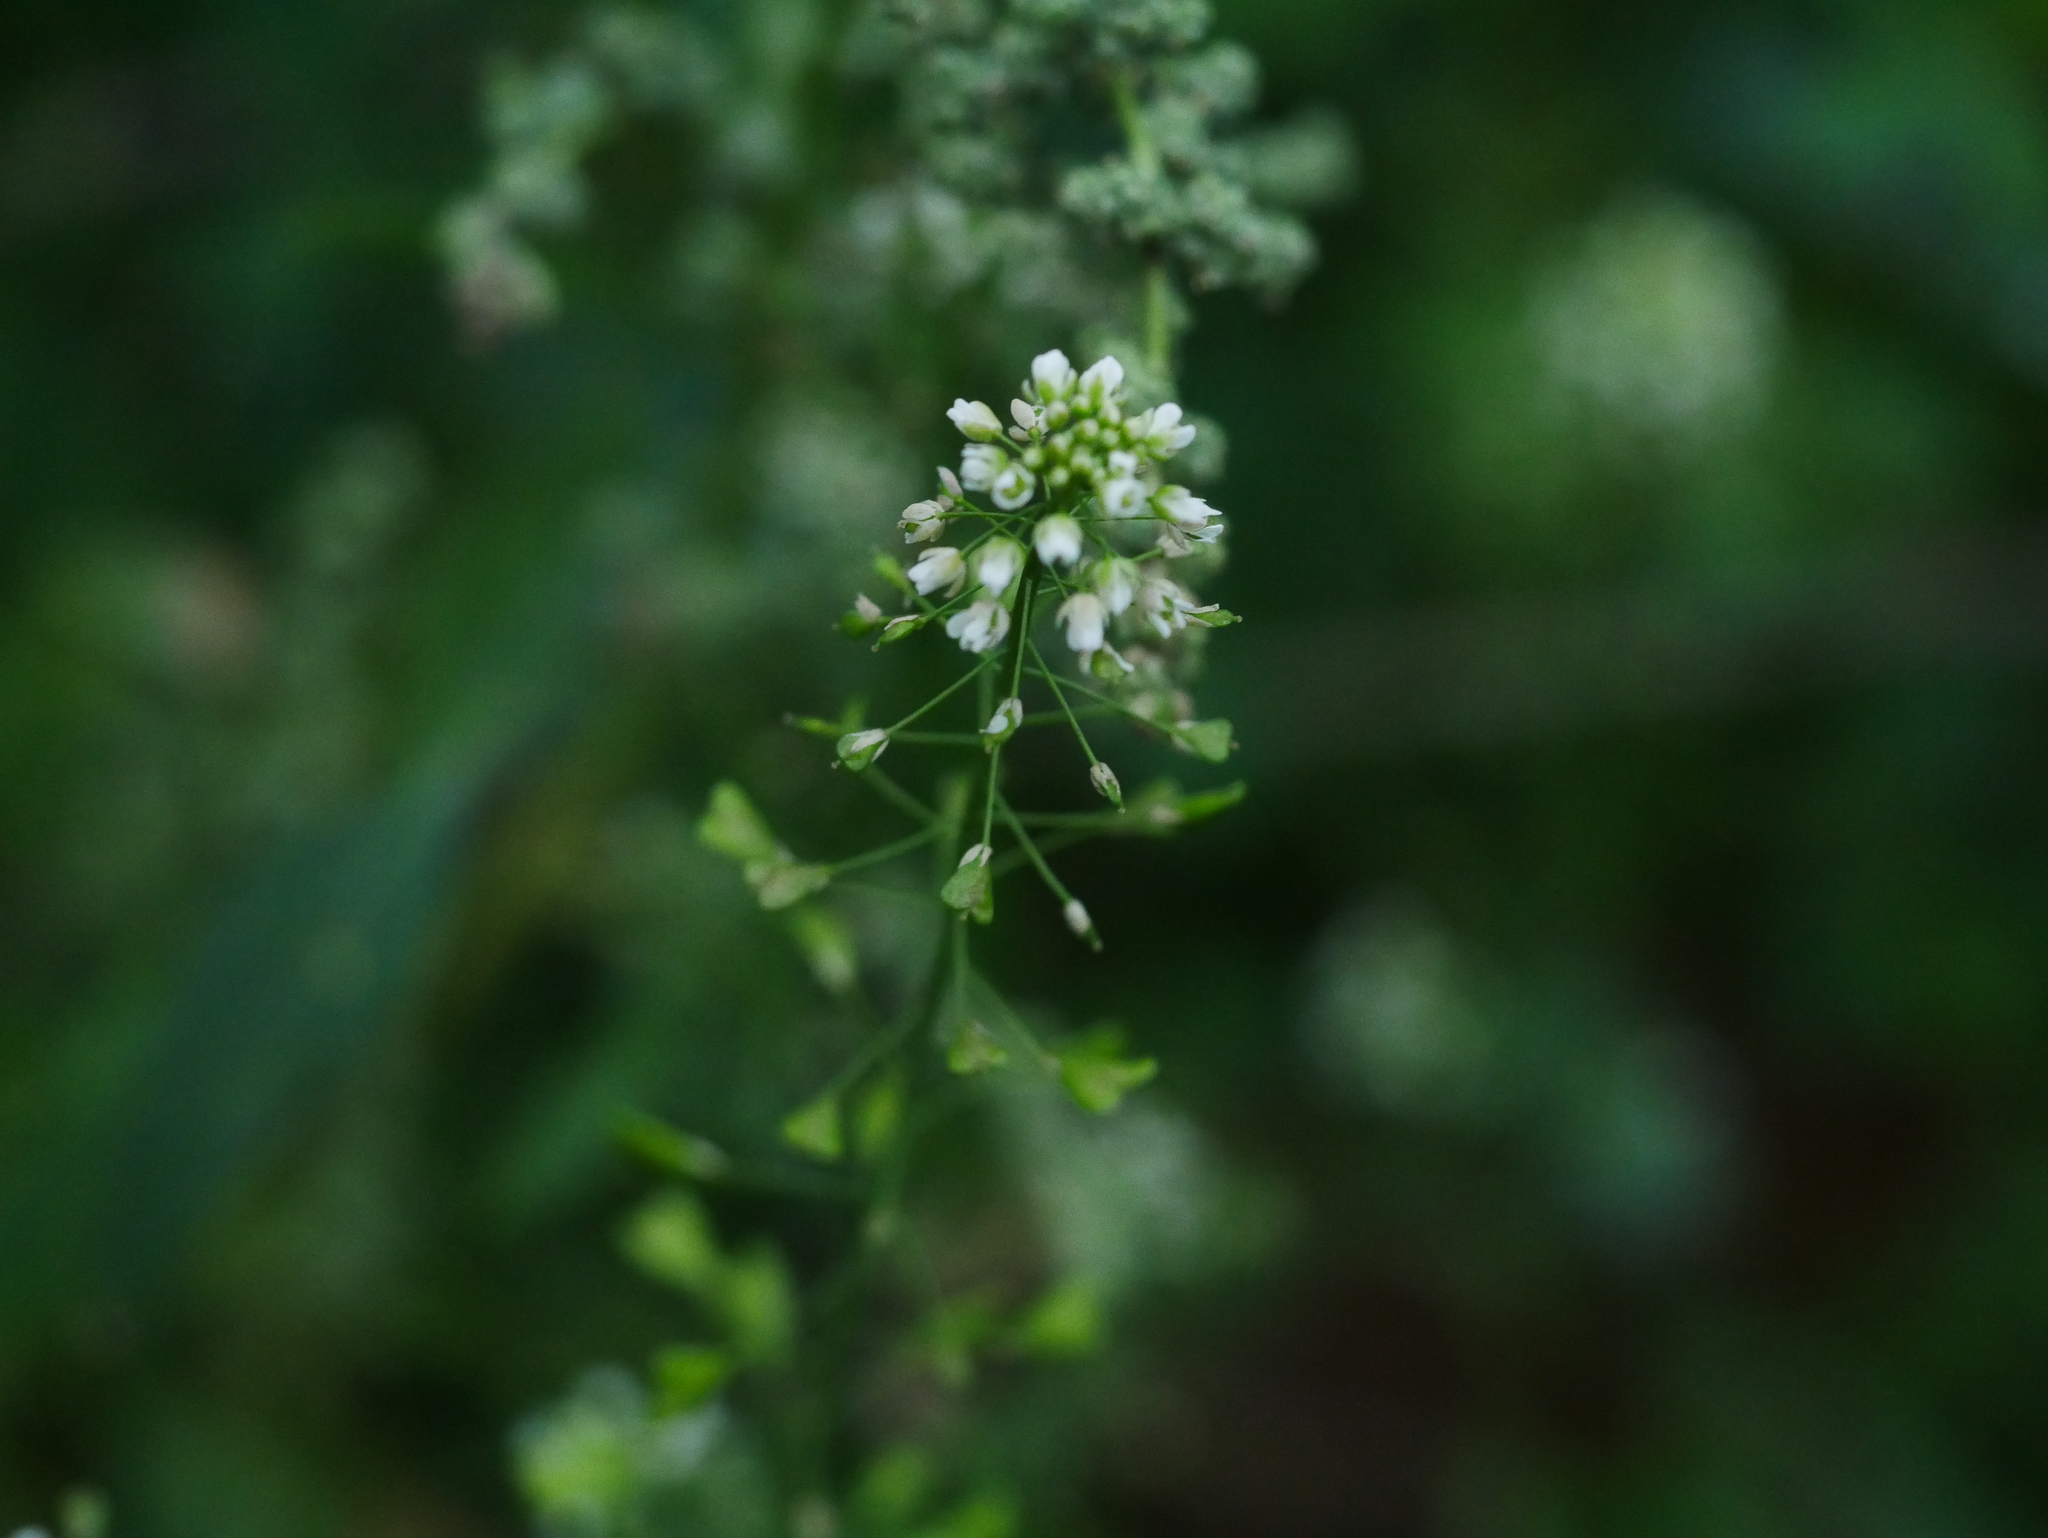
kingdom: Plantae
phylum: Tracheophyta
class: Magnoliopsida
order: Brassicales
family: Brassicaceae
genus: Capsella
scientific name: Capsella bursa-pastoris
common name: Shepherd's purse
